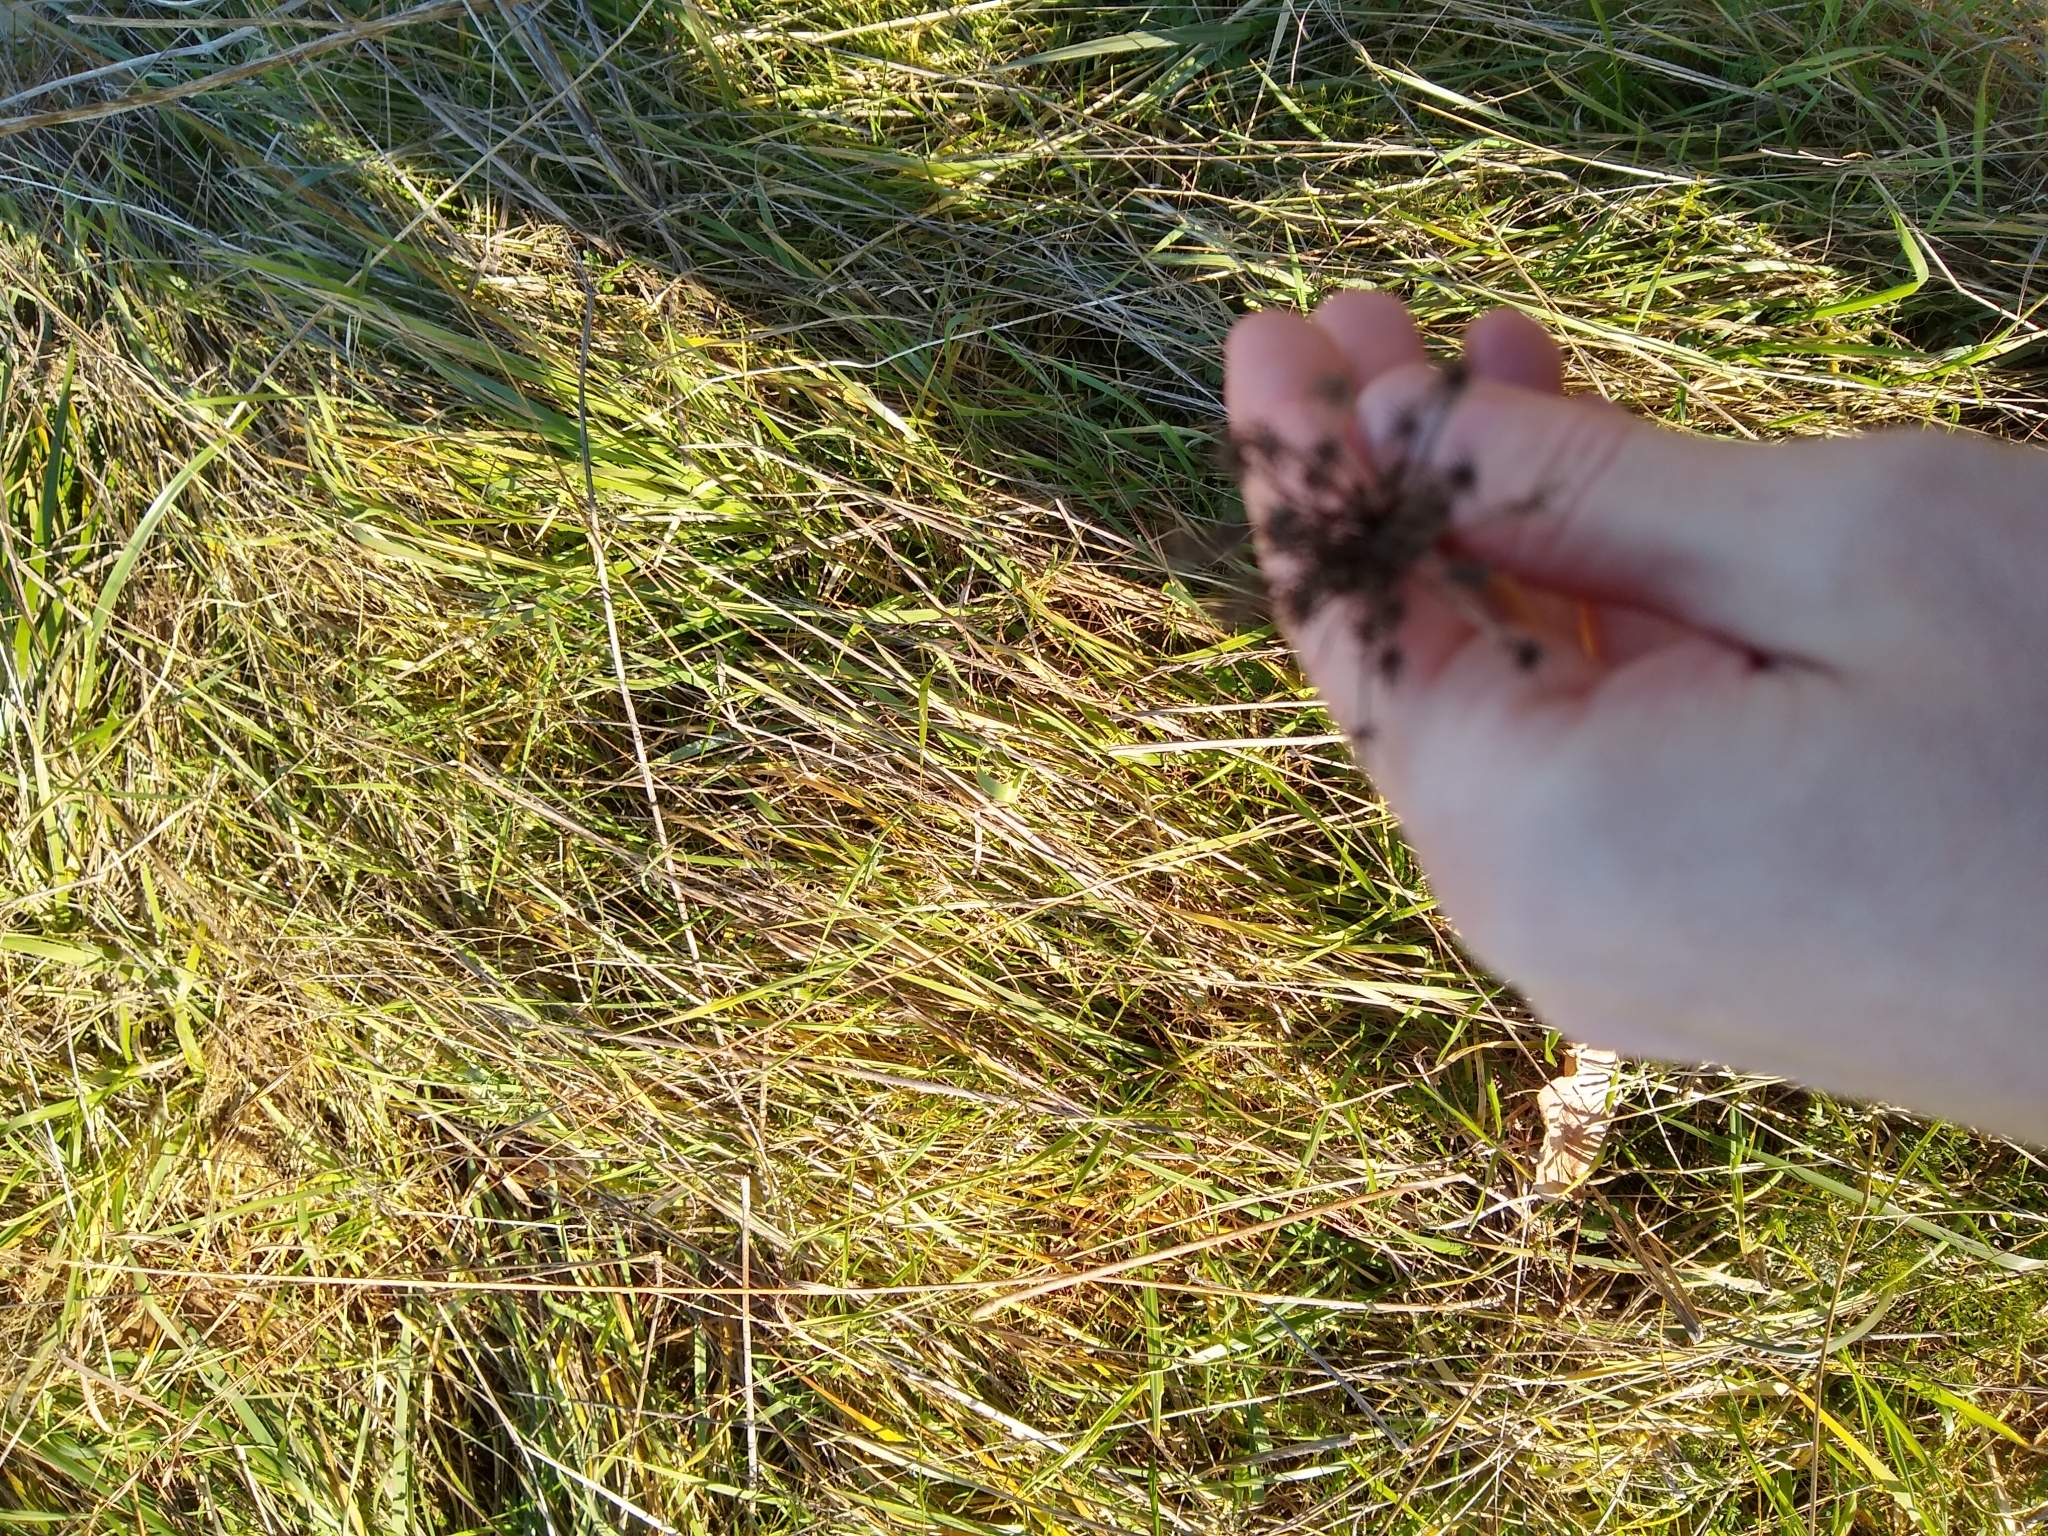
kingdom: Plantae
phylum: Tracheophyta
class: Magnoliopsida
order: Apiales
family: Apiaceae
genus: Daucus
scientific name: Daucus carota
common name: Wild carrot
